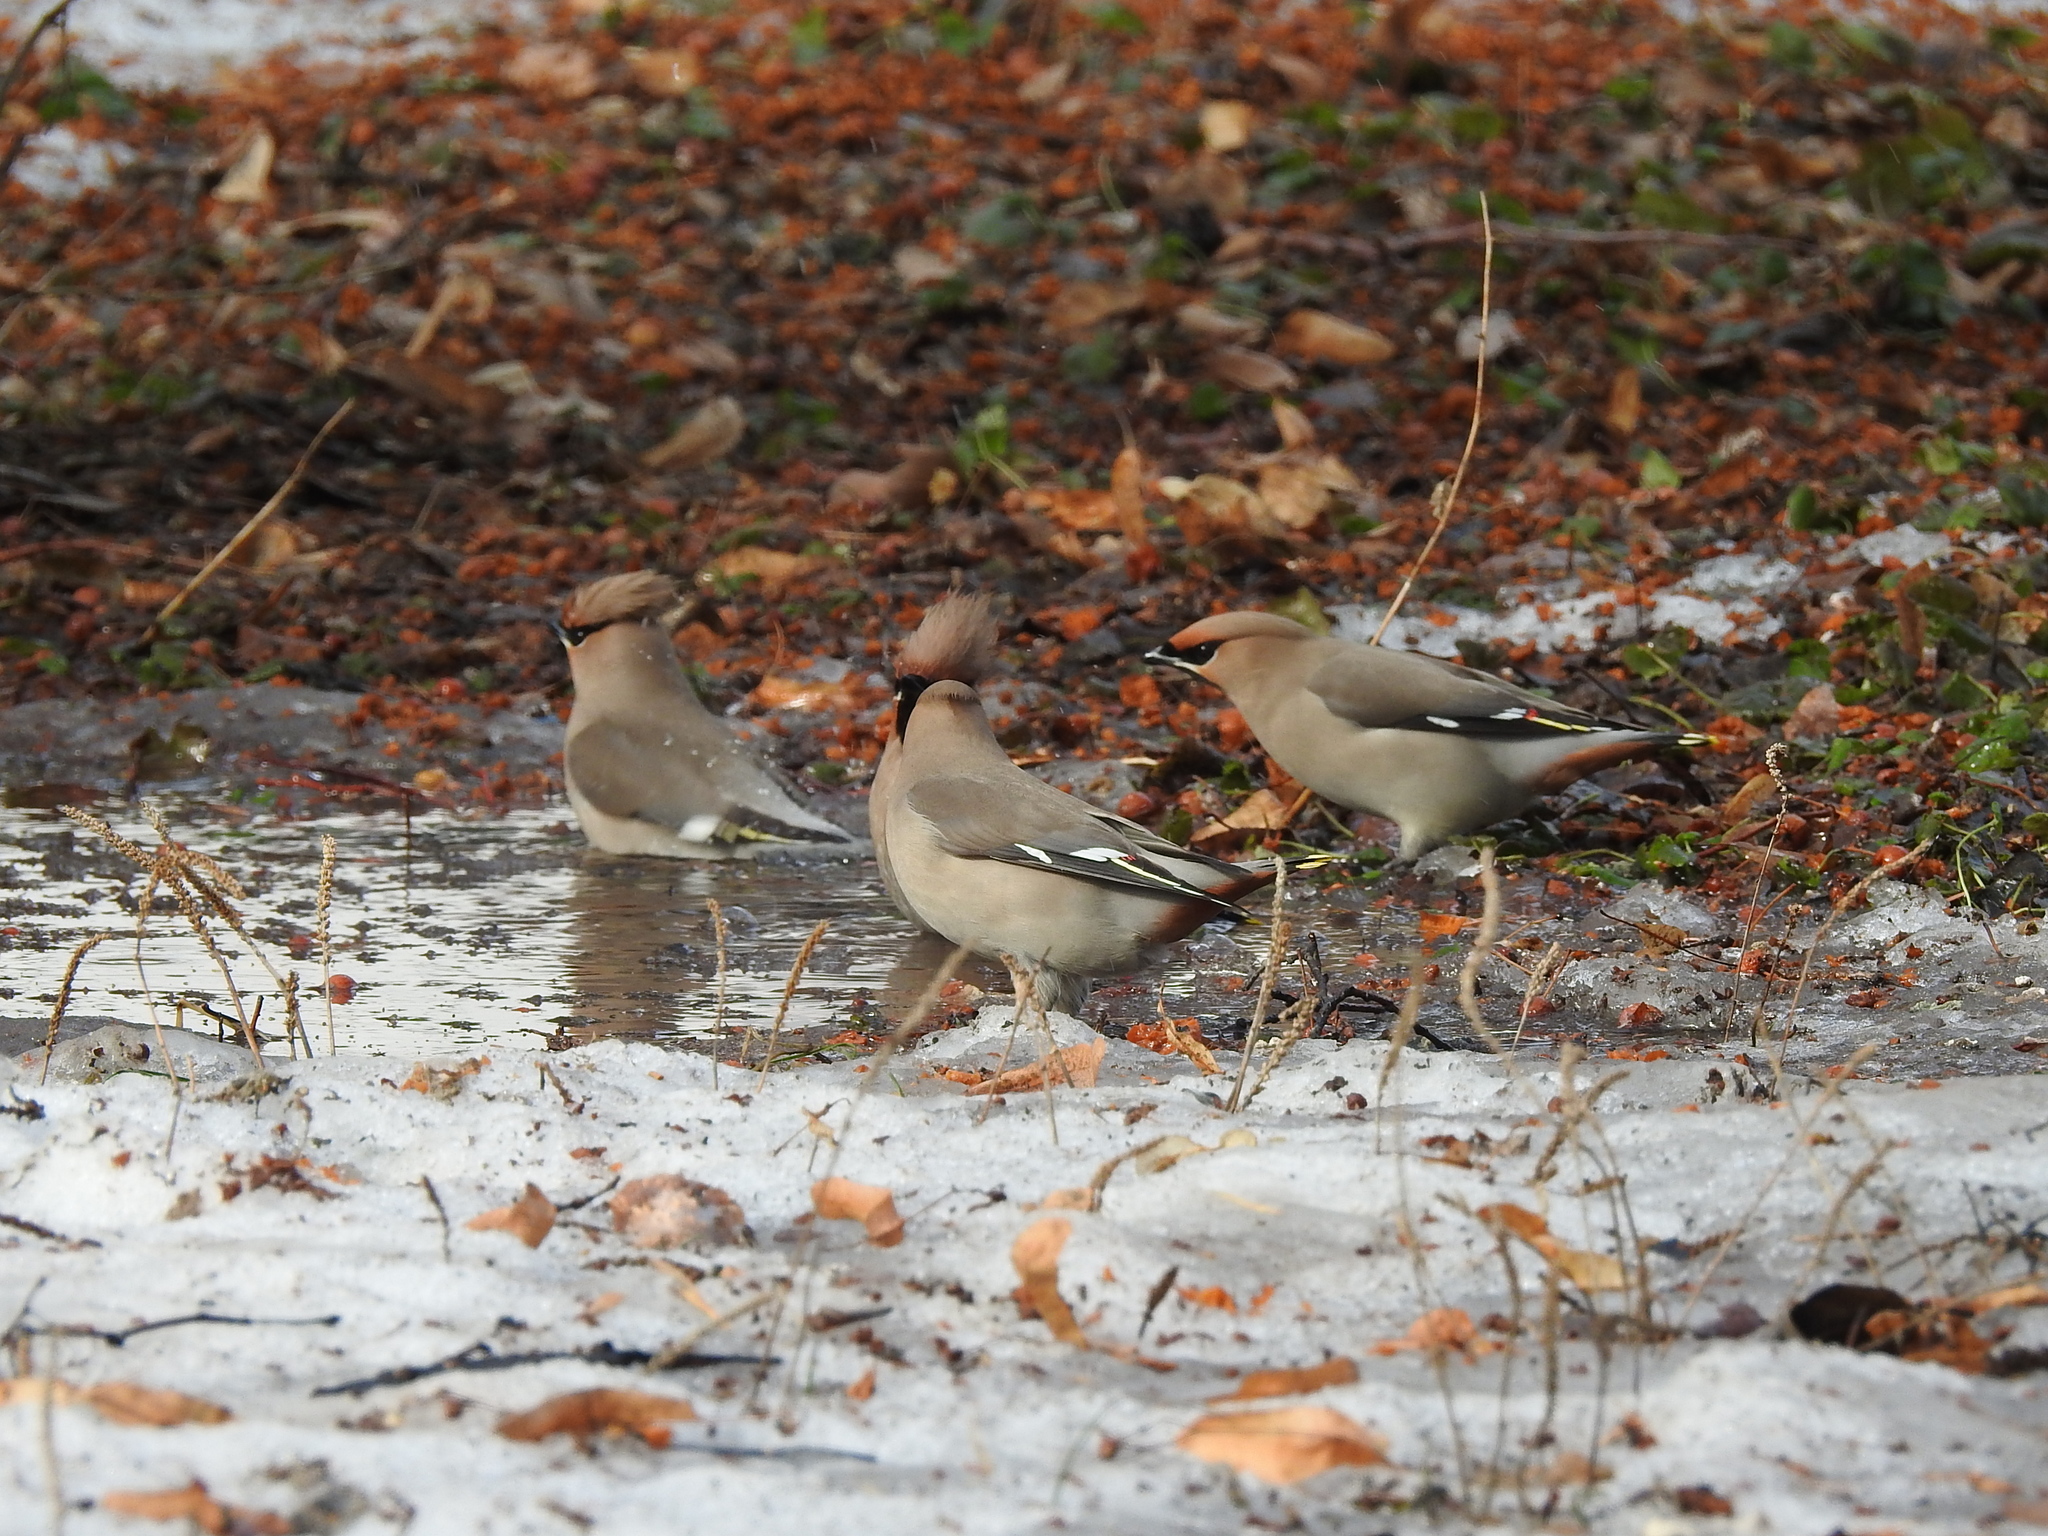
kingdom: Animalia
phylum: Chordata
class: Aves
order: Passeriformes
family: Bombycillidae
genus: Bombycilla
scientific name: Bombycilla garrulus
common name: Bohemian waxwing
